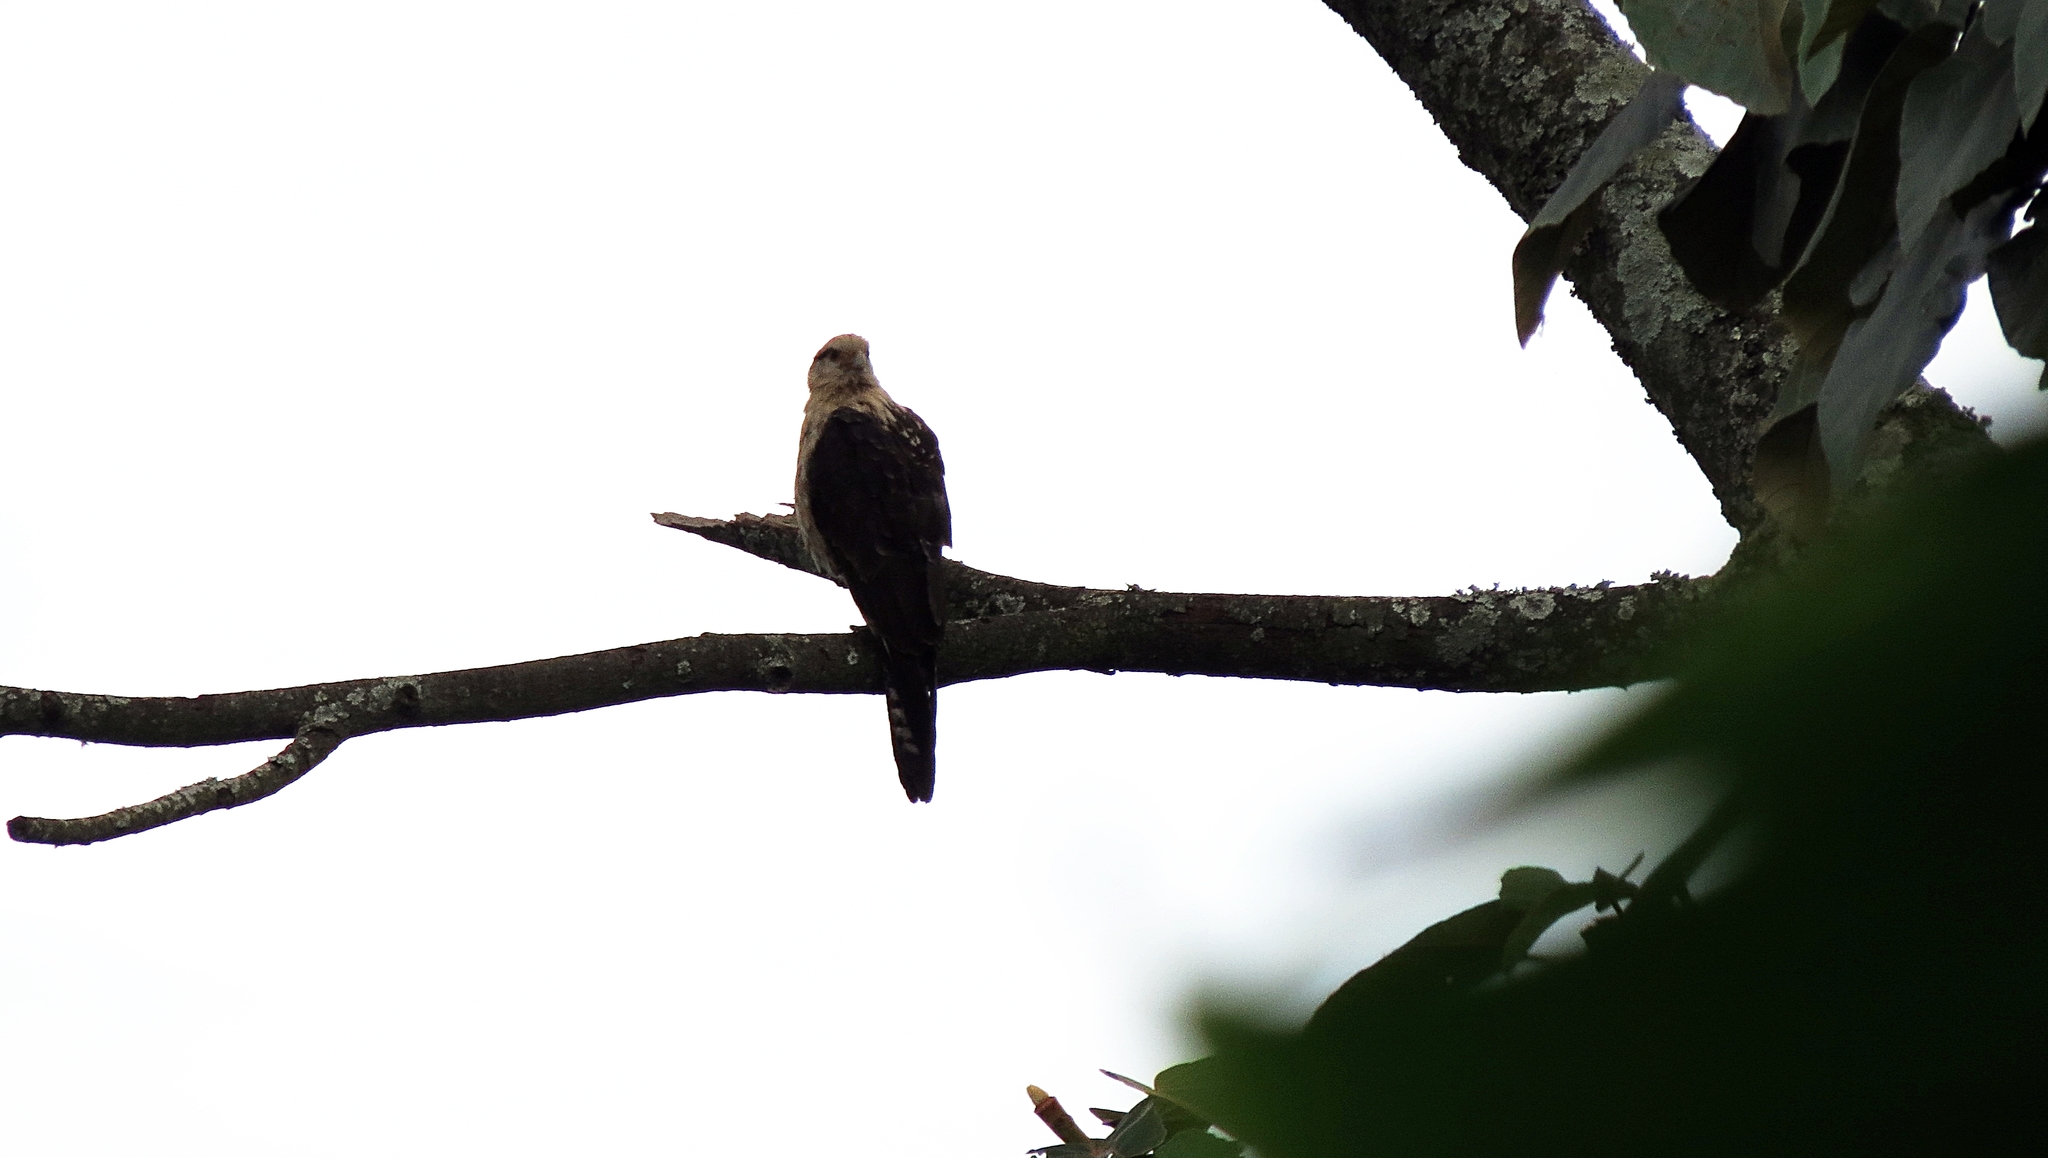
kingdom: Animalia
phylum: Chordata
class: Aves
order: Falconiformes
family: Falconidae
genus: Daptrius
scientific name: Daptrius
